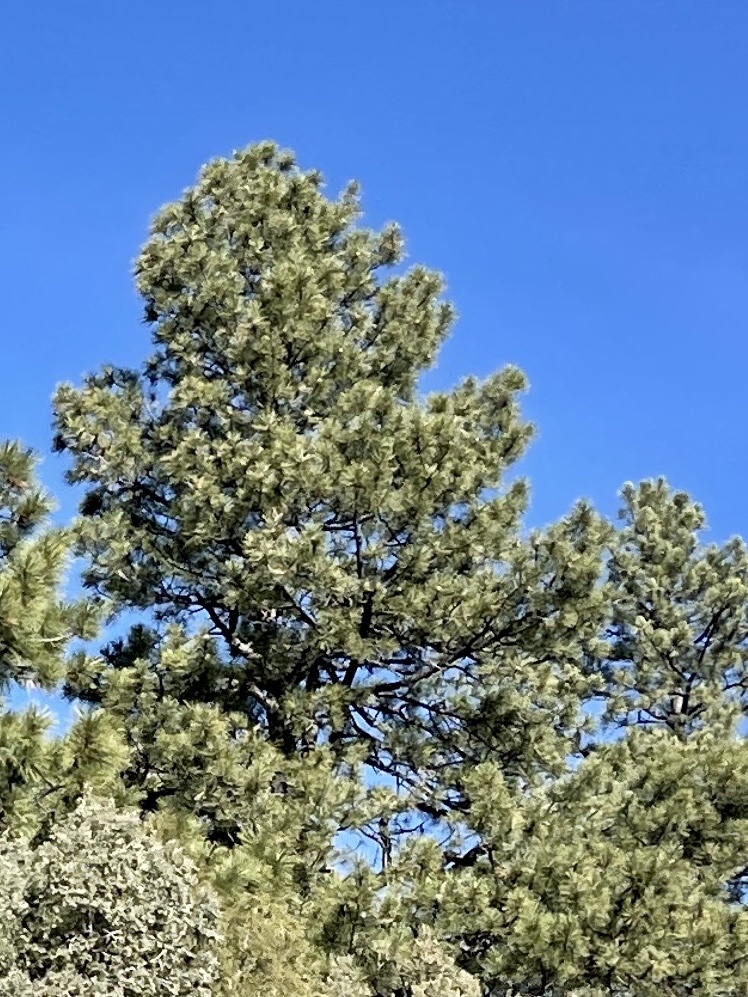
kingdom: Plantae
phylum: Tracheophyta
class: Pinopsida
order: Pinales
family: Pinaceae
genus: Pinus
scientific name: Pinus ponderosa
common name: Western yellow-pine
